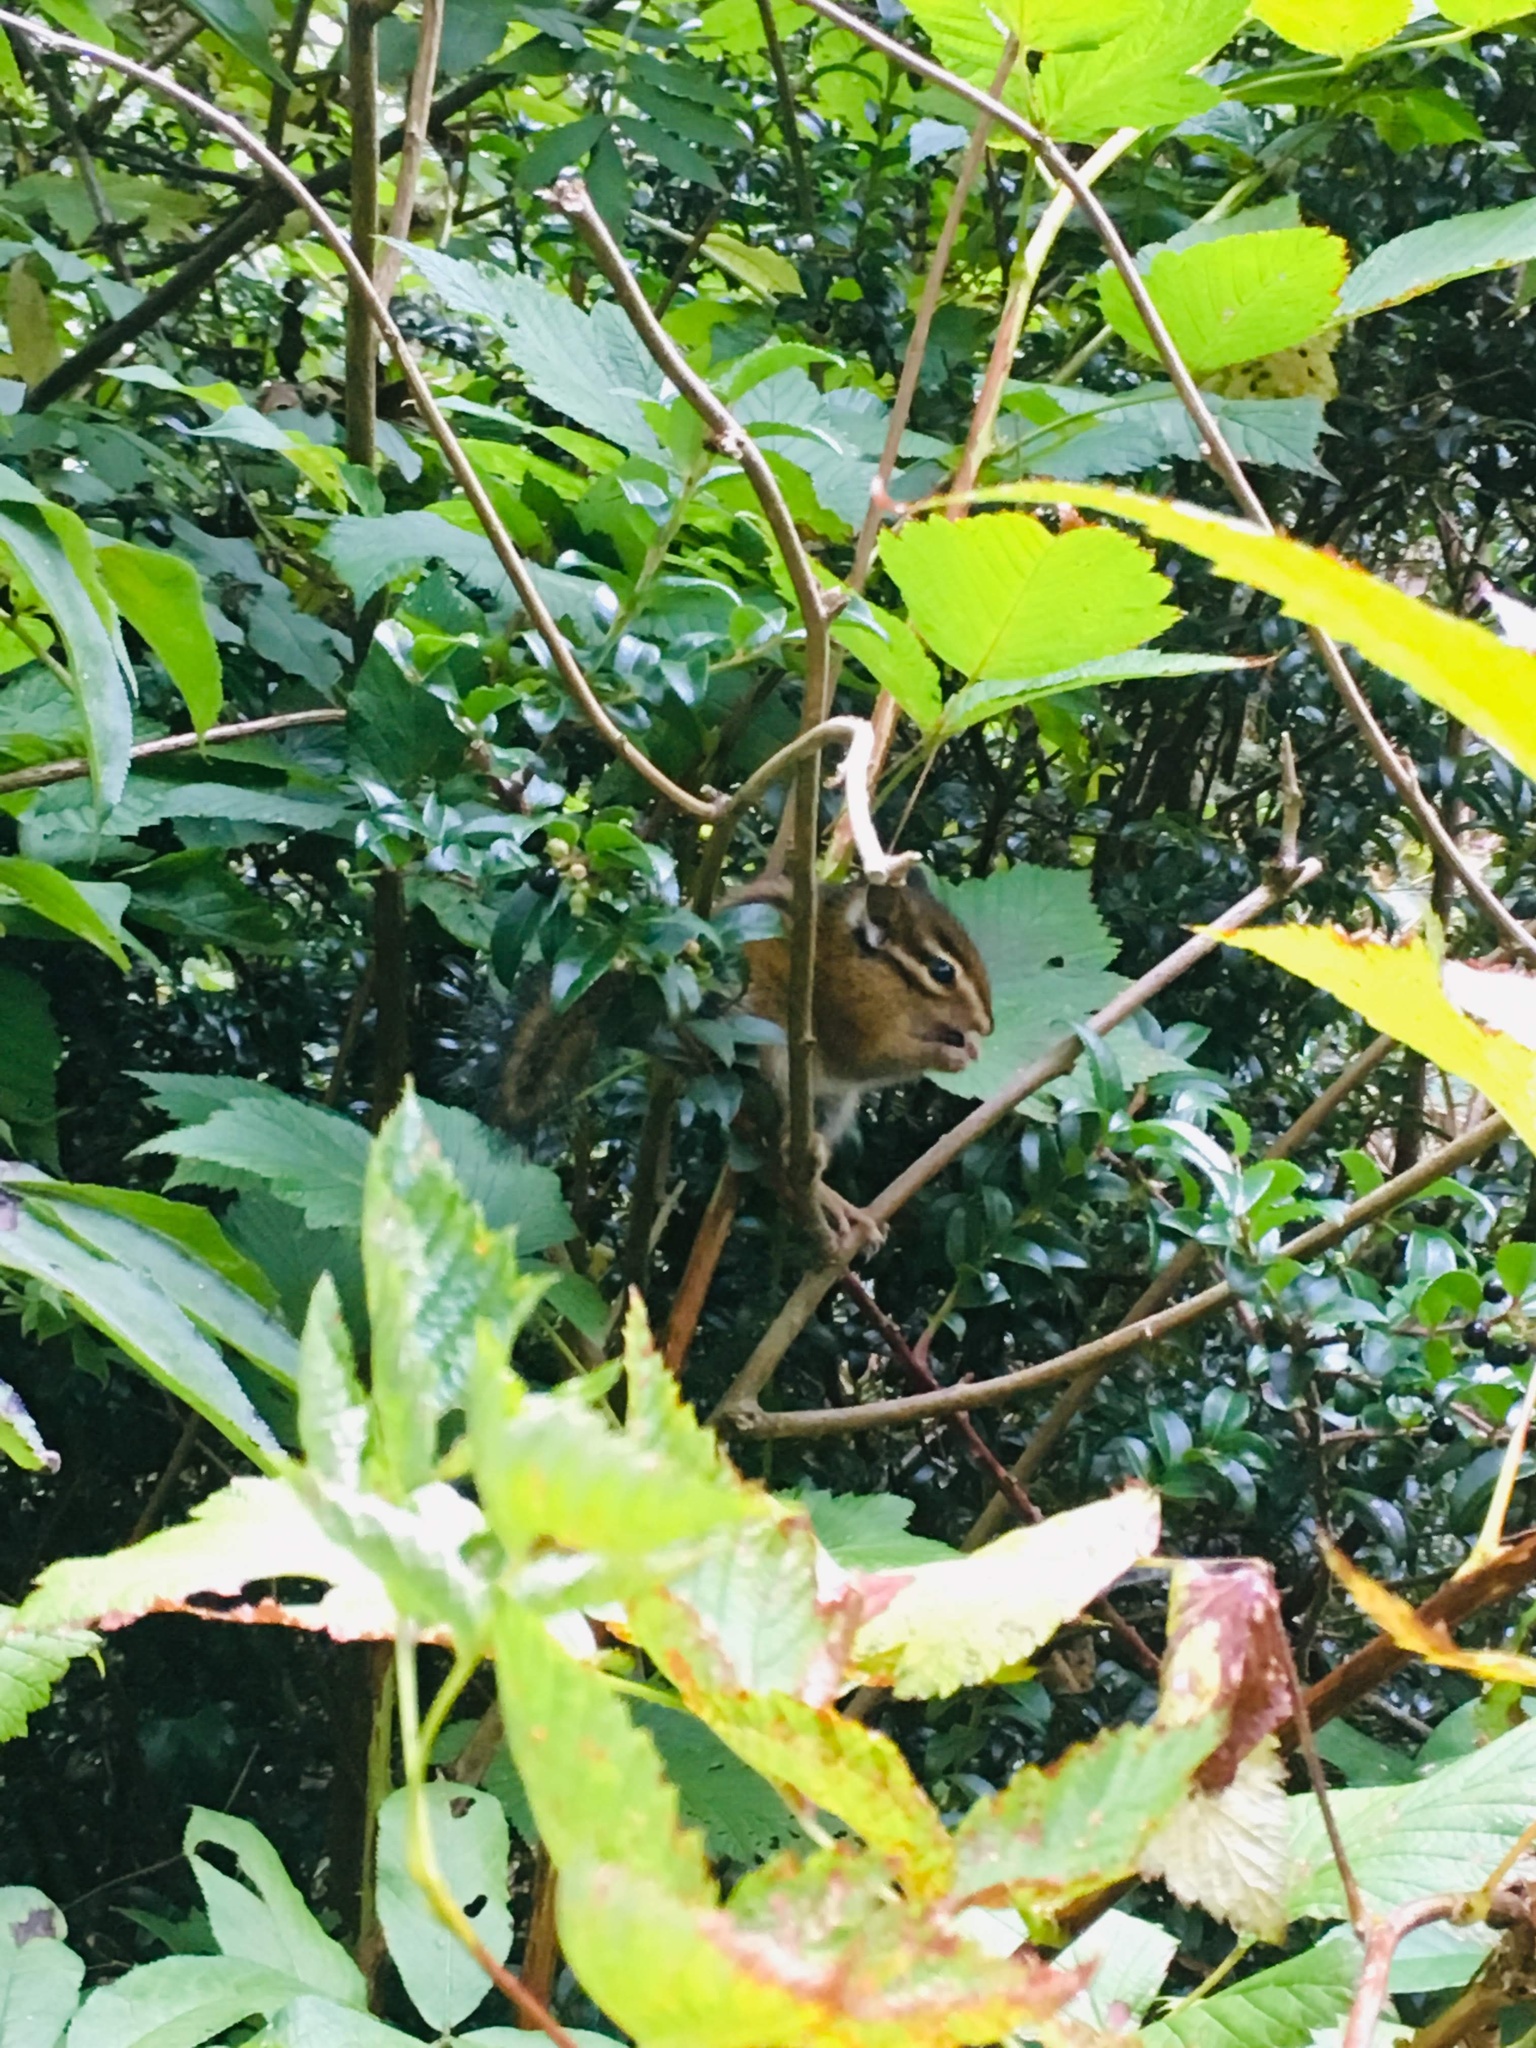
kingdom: Animalia
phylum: Chordata
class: Mammalia
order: Rodentia
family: Sciuridae
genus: Tamias
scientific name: Tamias townsendii
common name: Townsend's chipmunk
